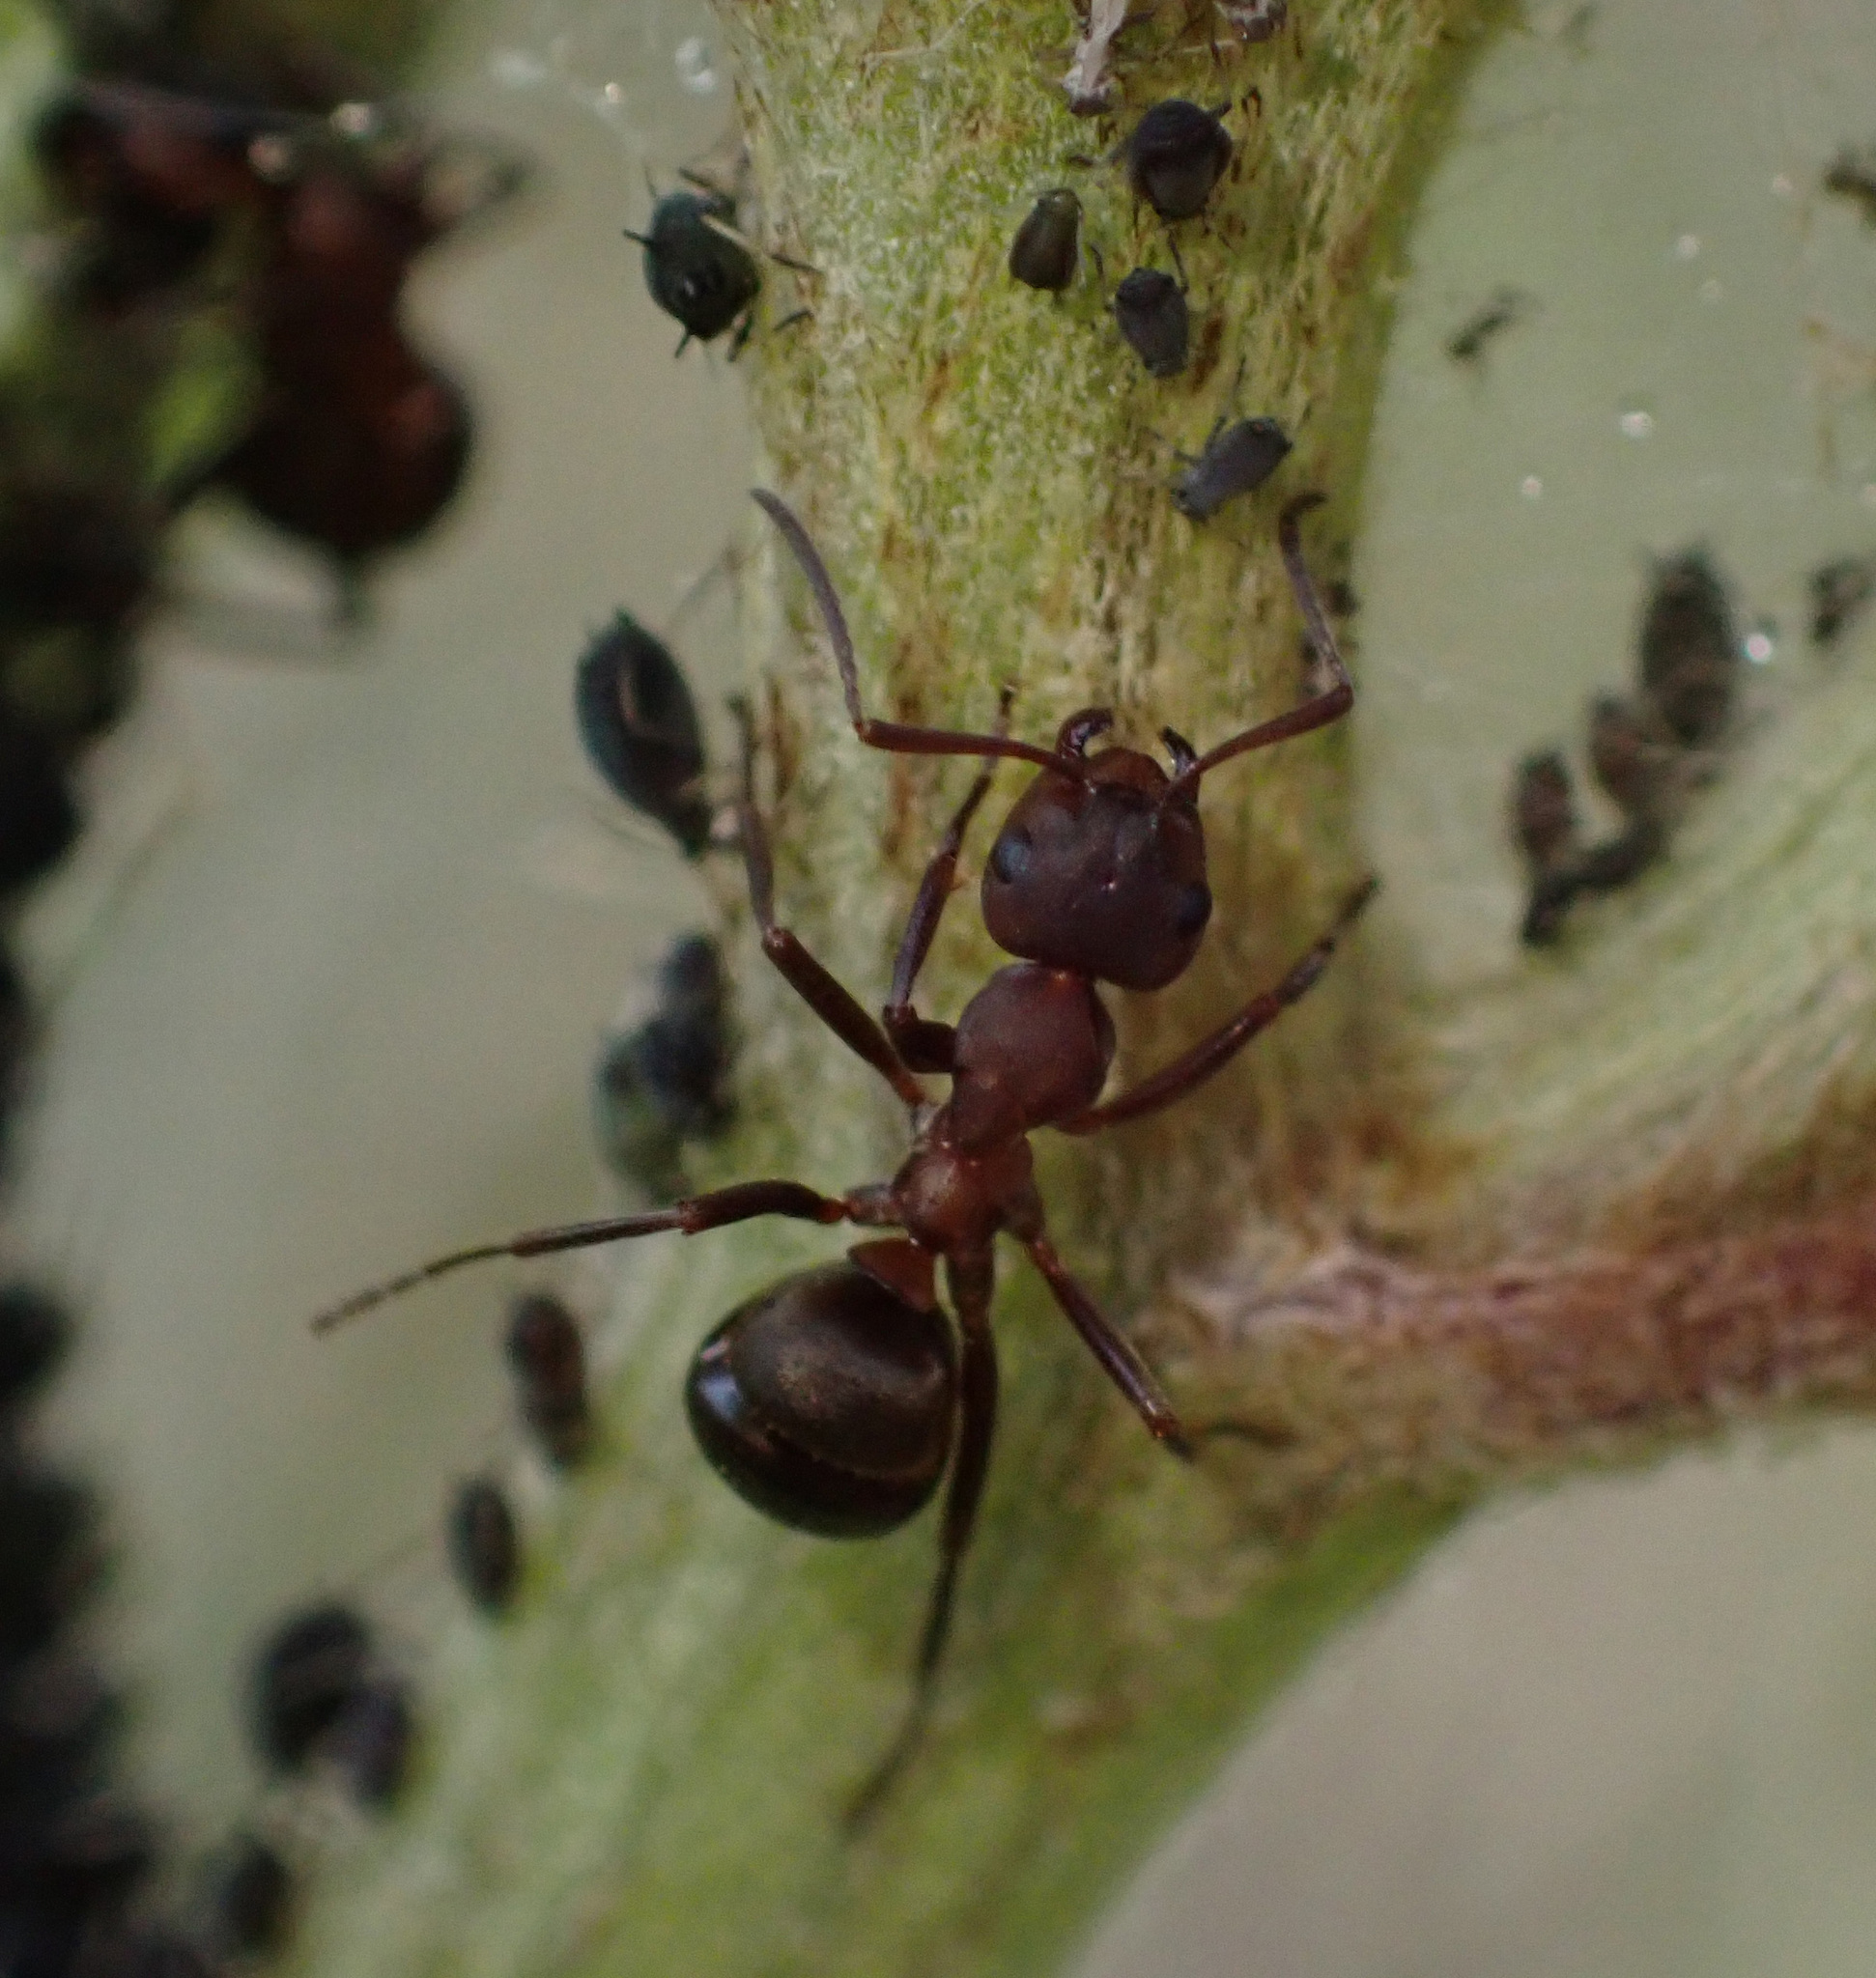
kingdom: Animalia
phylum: Arthropoda
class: Insecta
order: Hymenoptera
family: Formicidae
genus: Formica
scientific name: Formica sanguinea
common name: Blood-red ant
